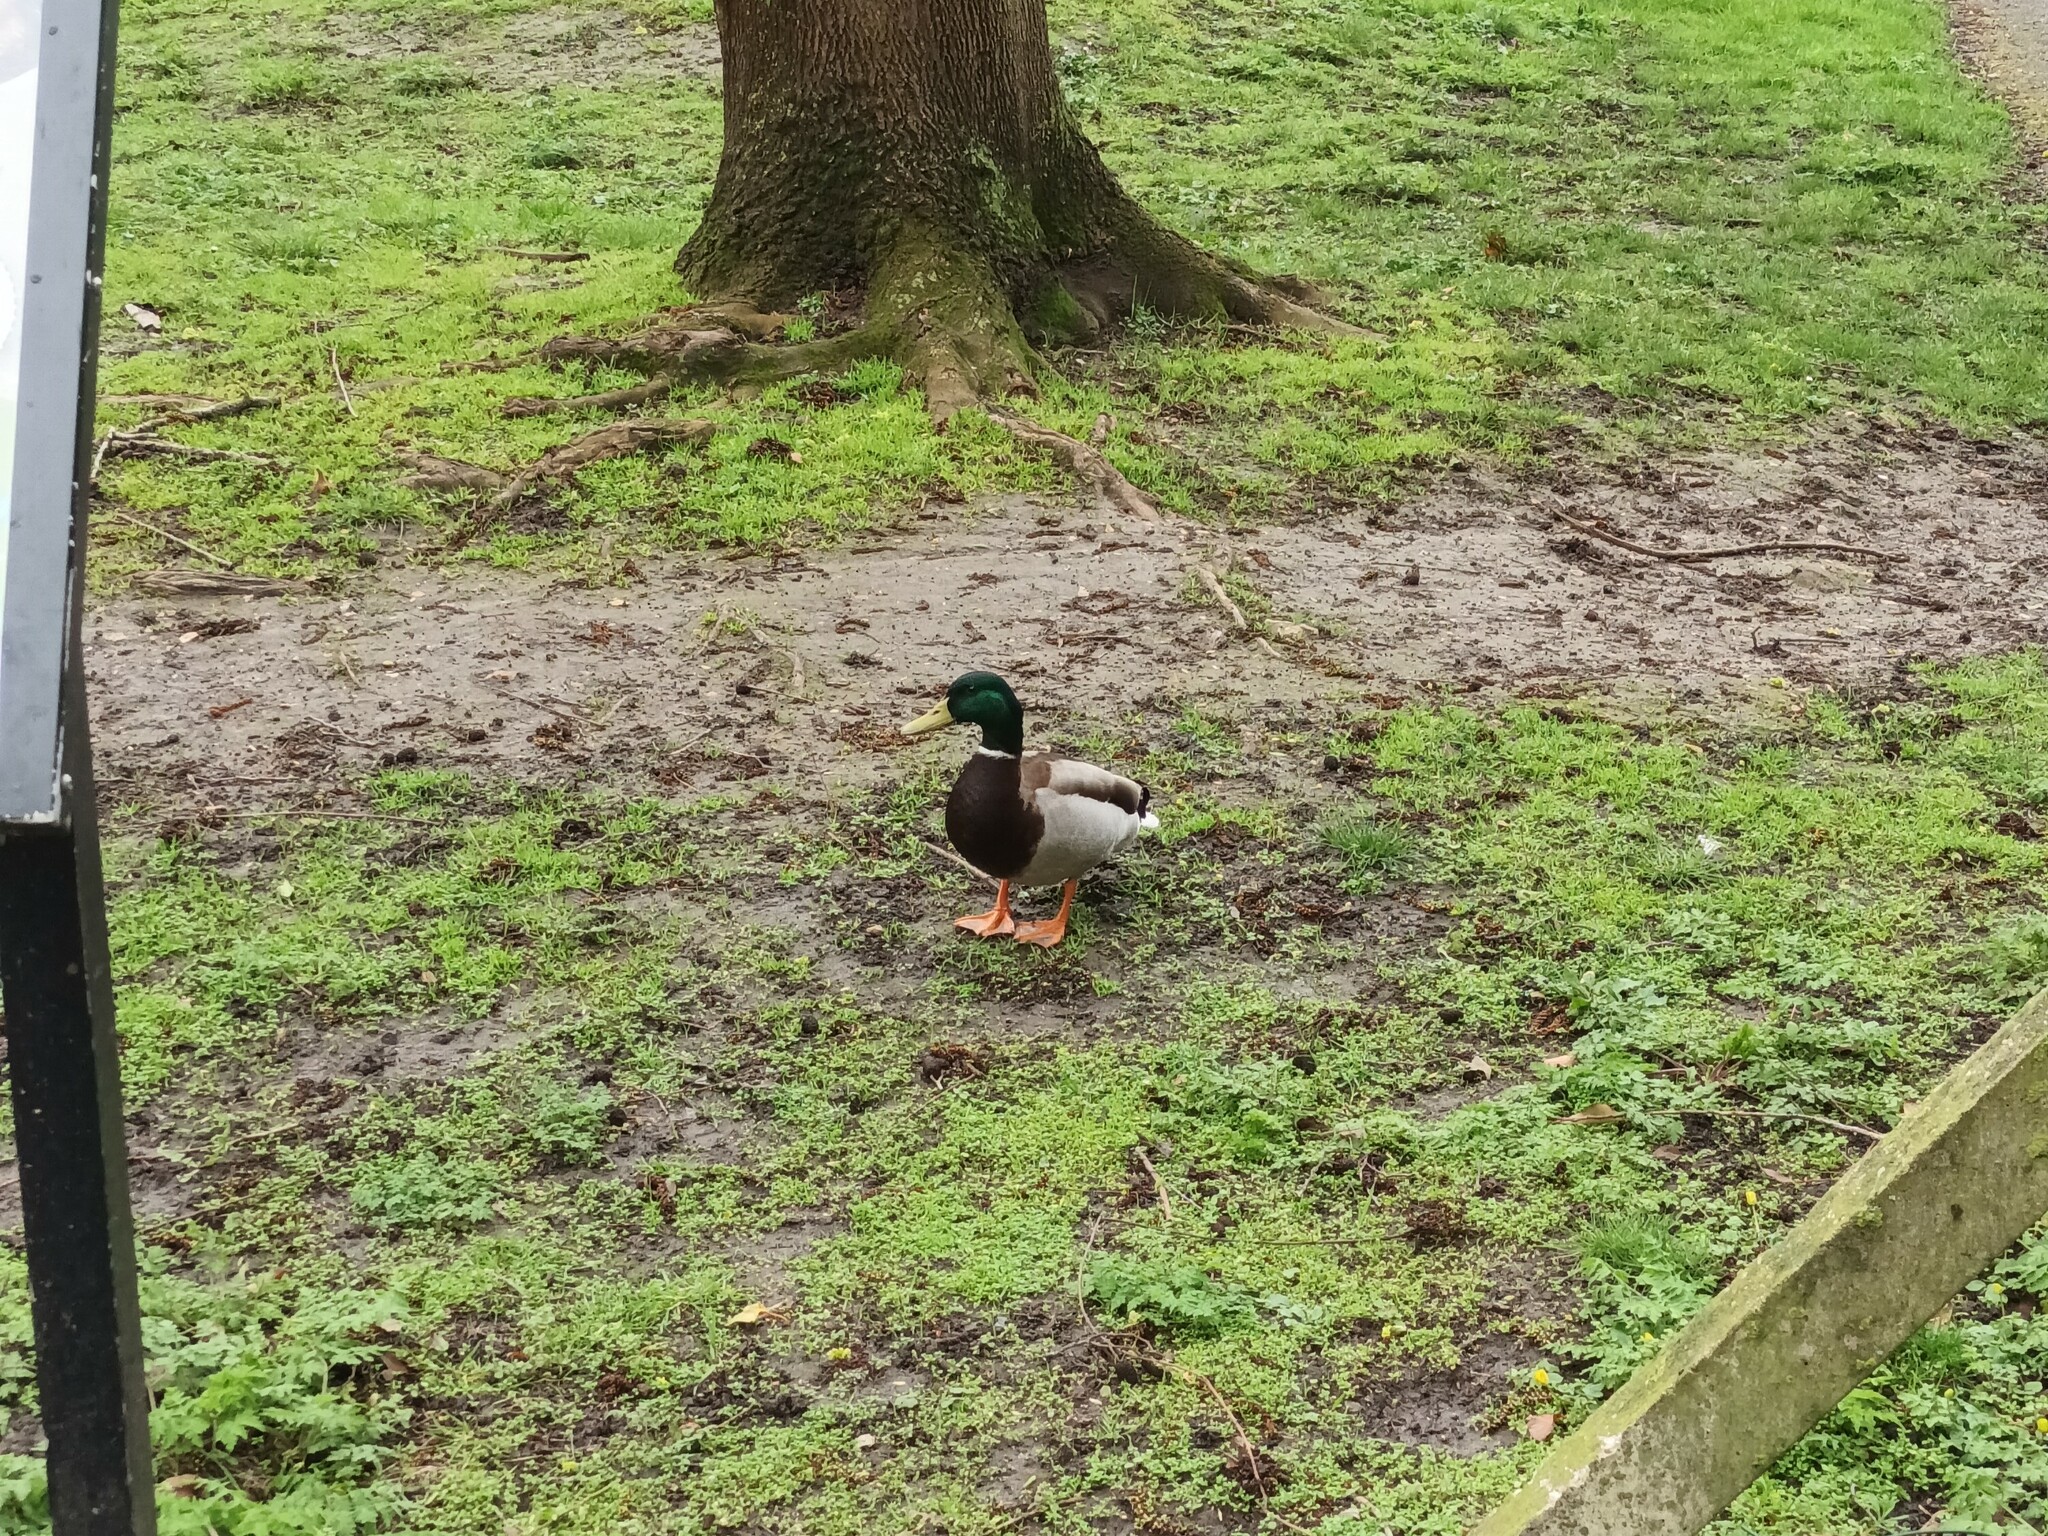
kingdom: Animalia
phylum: Chordata
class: Aves
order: Anseriformes
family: Anatidae
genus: Anas
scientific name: Anas platyrhynchos
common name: Mallard
